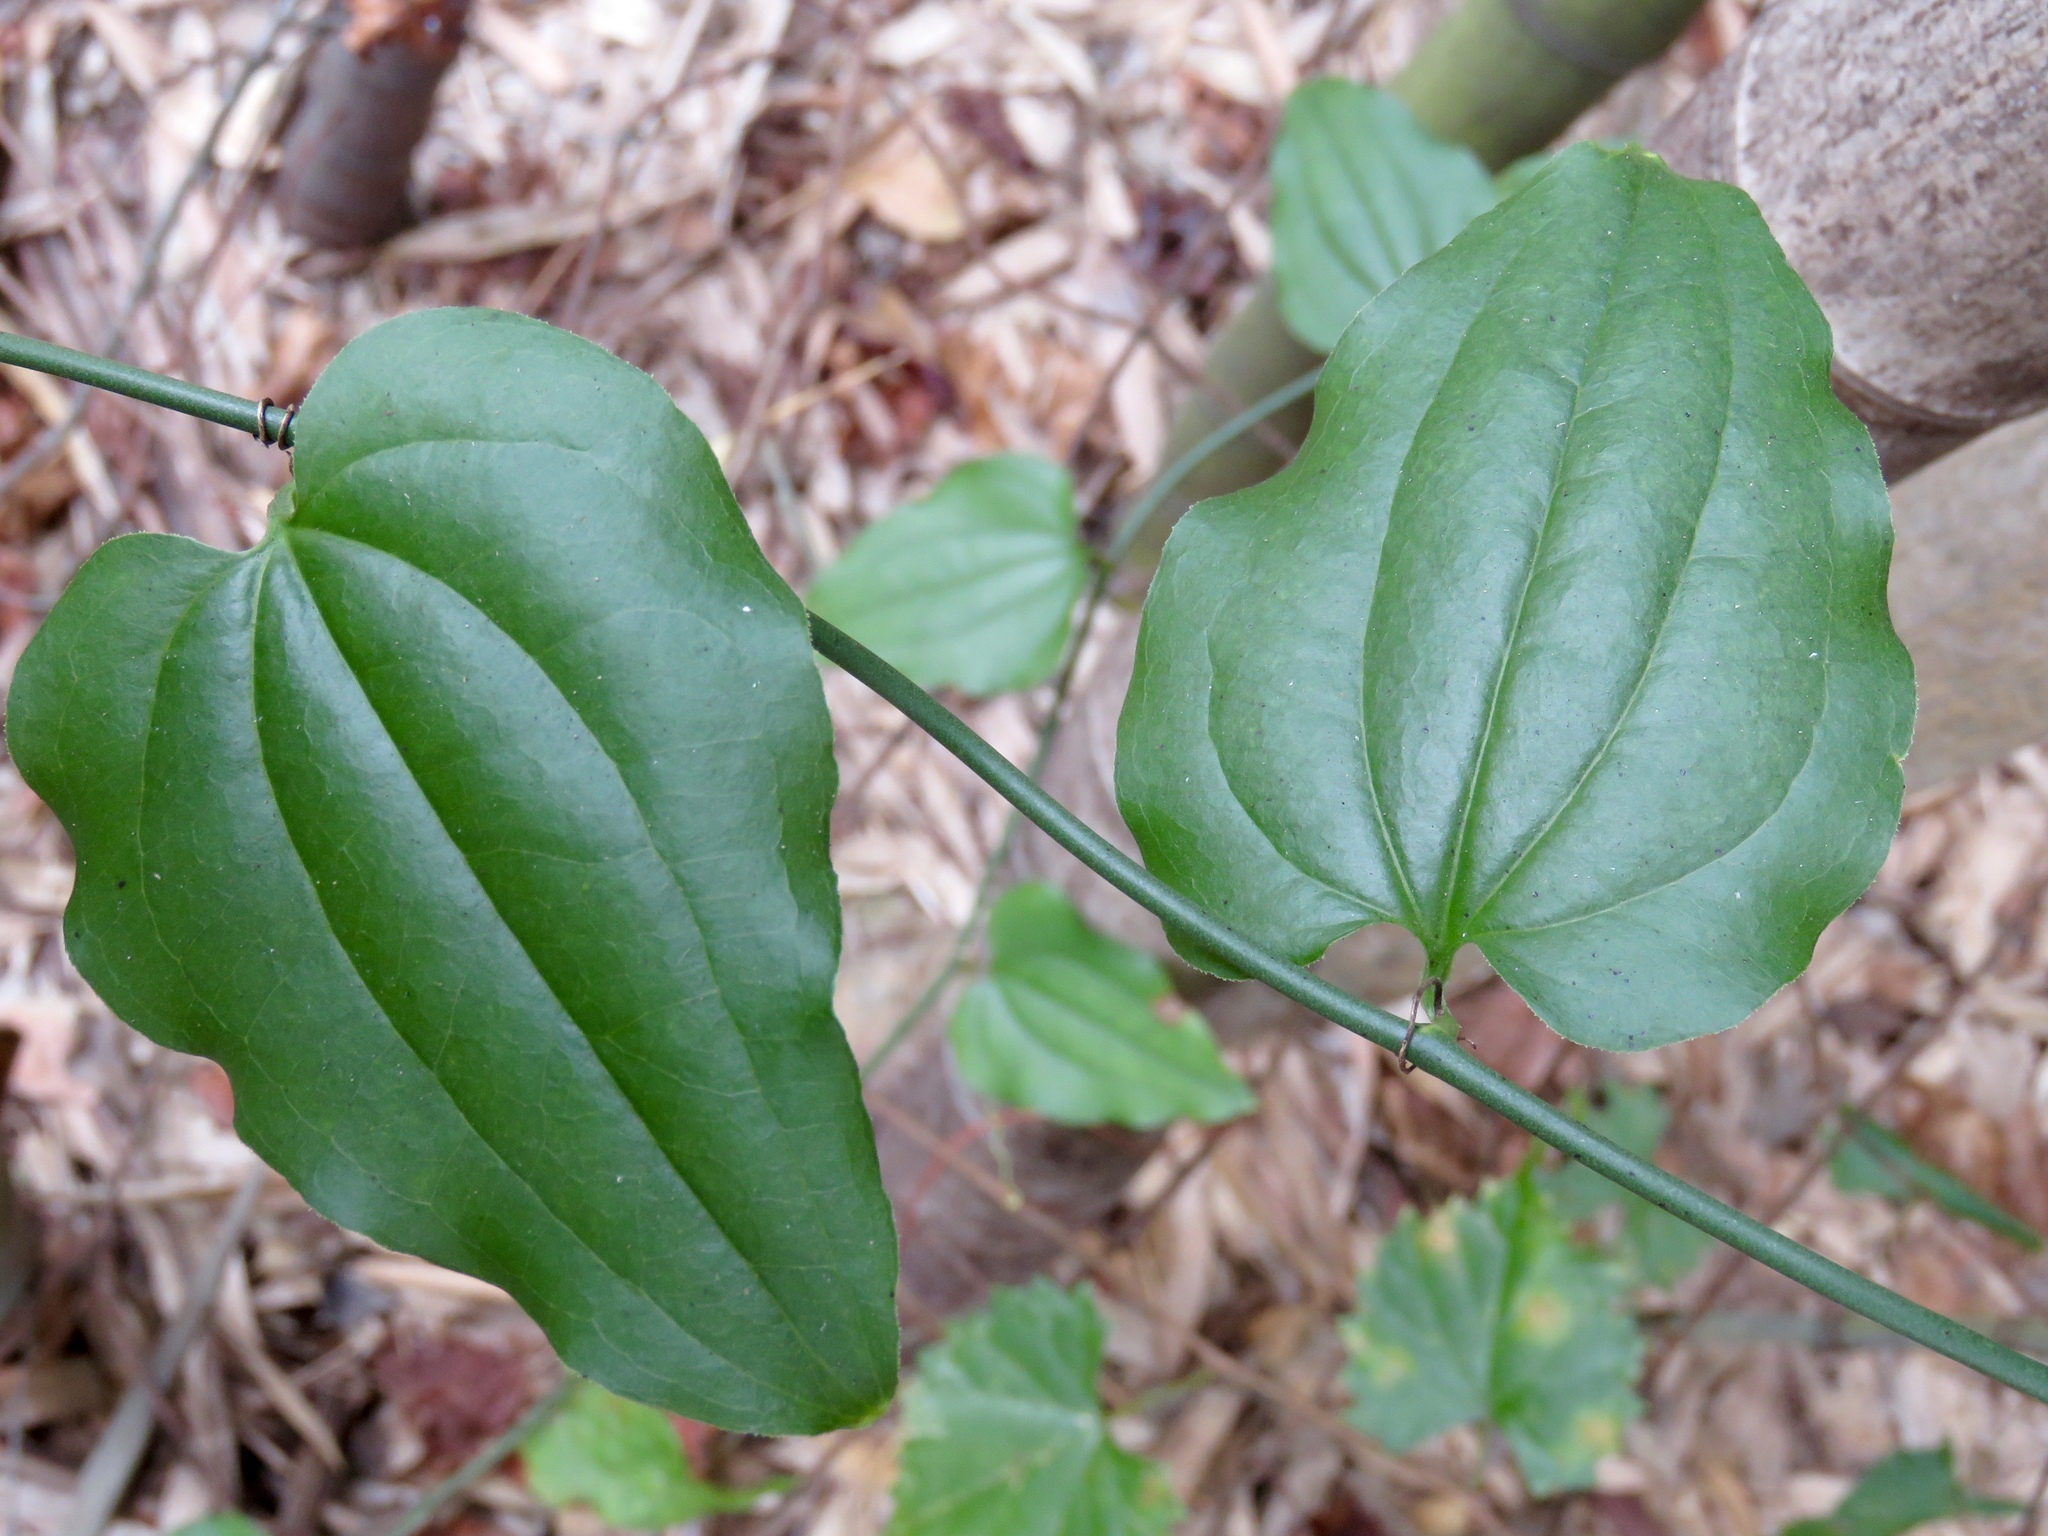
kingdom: Plantae
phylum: Tracheophyta
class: Liliopsida
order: Liliales
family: Smilacaceae
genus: Smilax
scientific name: Smilax tamnoides
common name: Hellfetter
